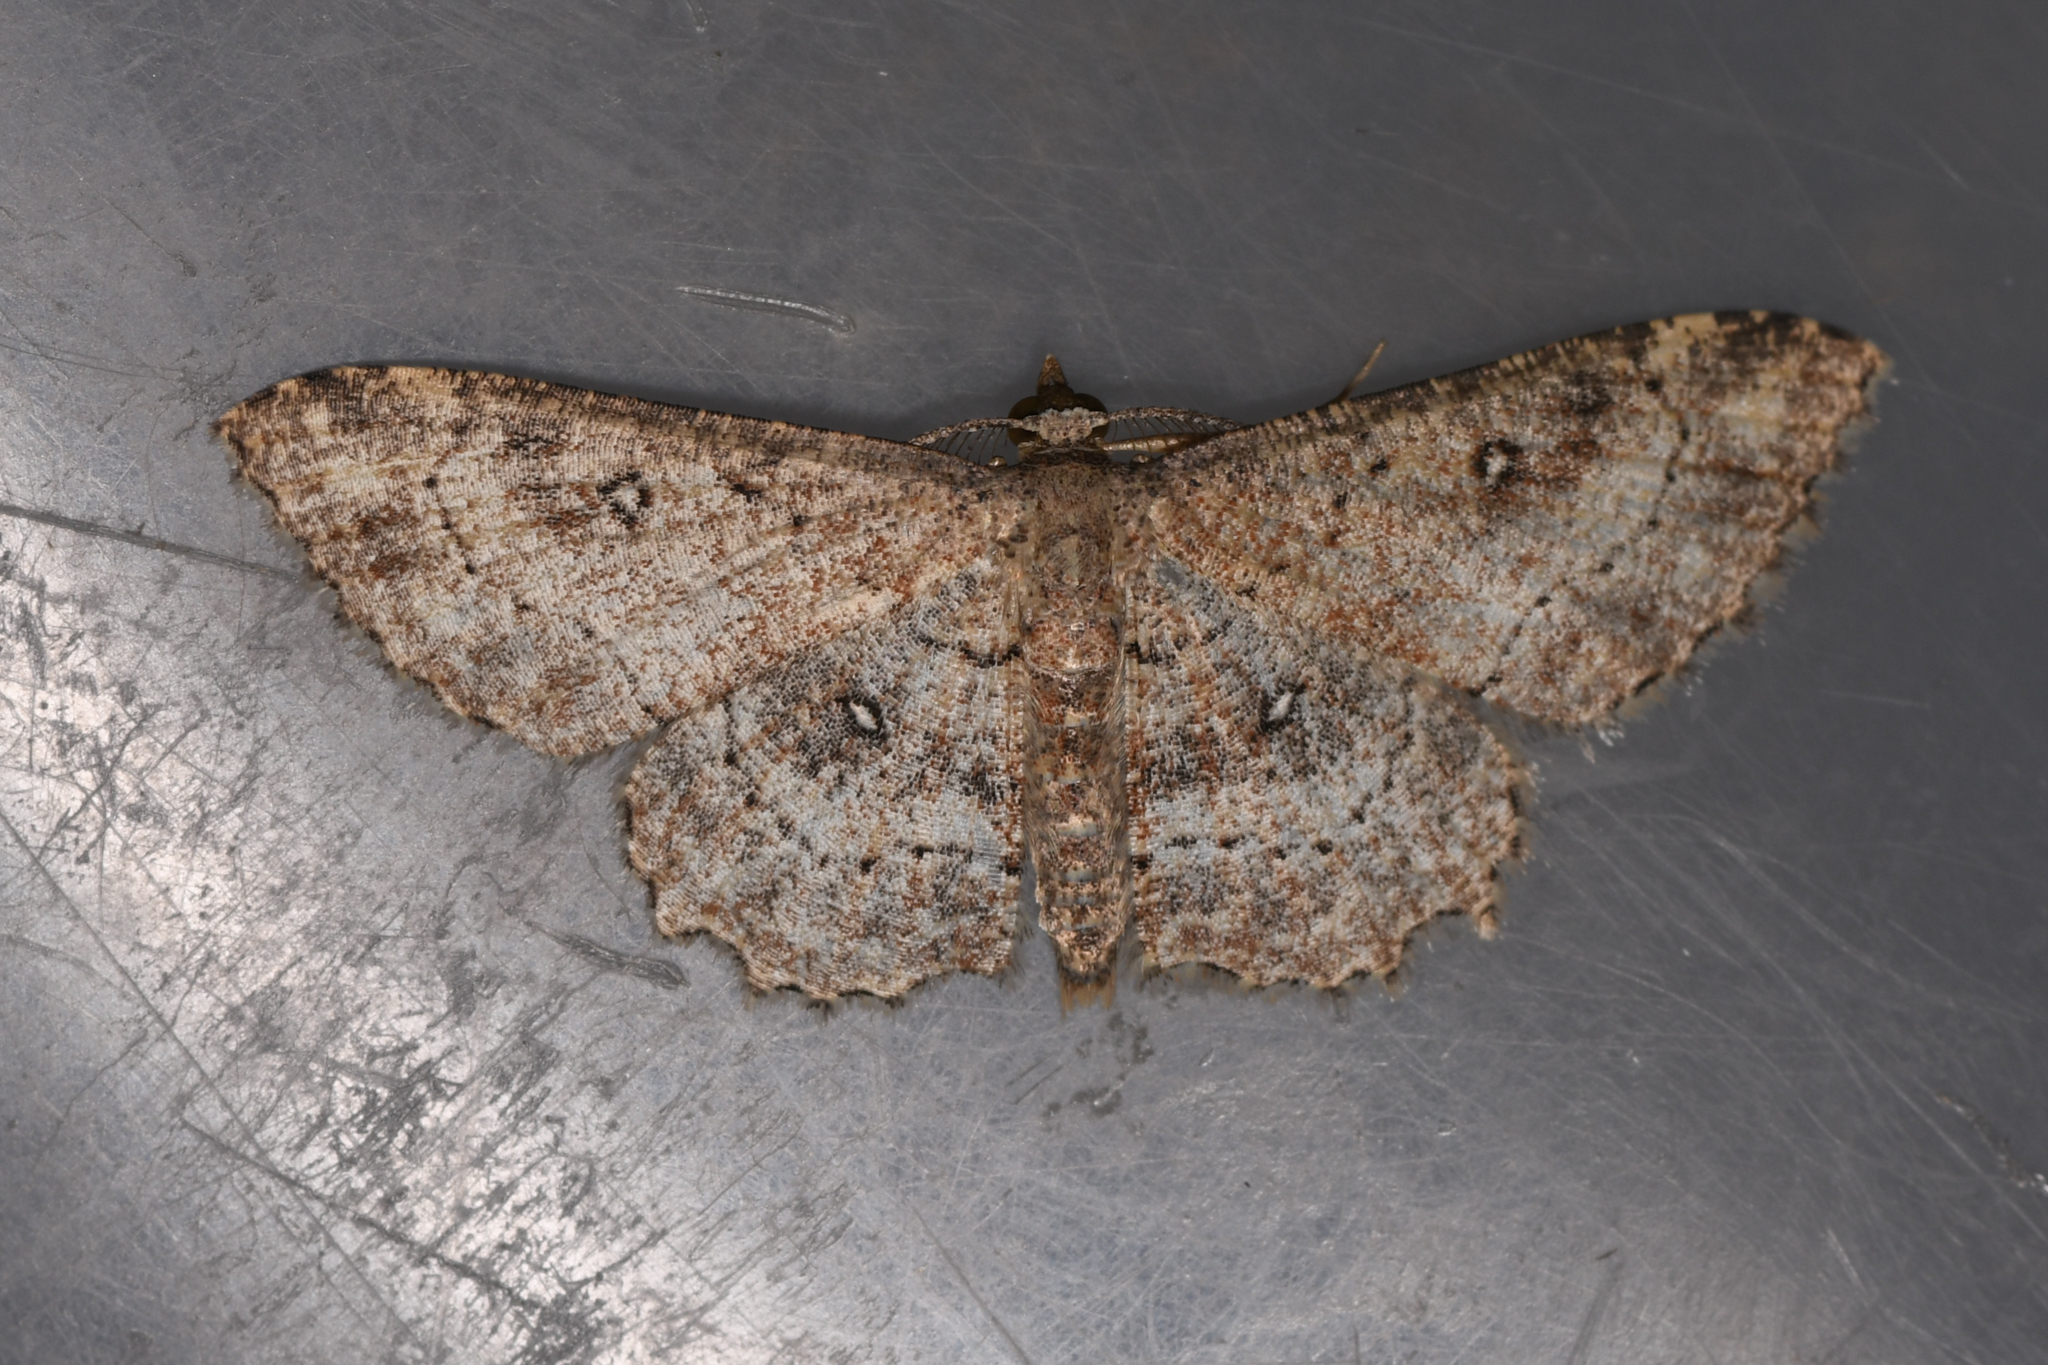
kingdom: Animalia
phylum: Arthropoda
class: Insecta
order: Lepidoptera
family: Geometridae
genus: Cyclophora
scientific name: Cyclophora nanaria
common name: Cankerworm
